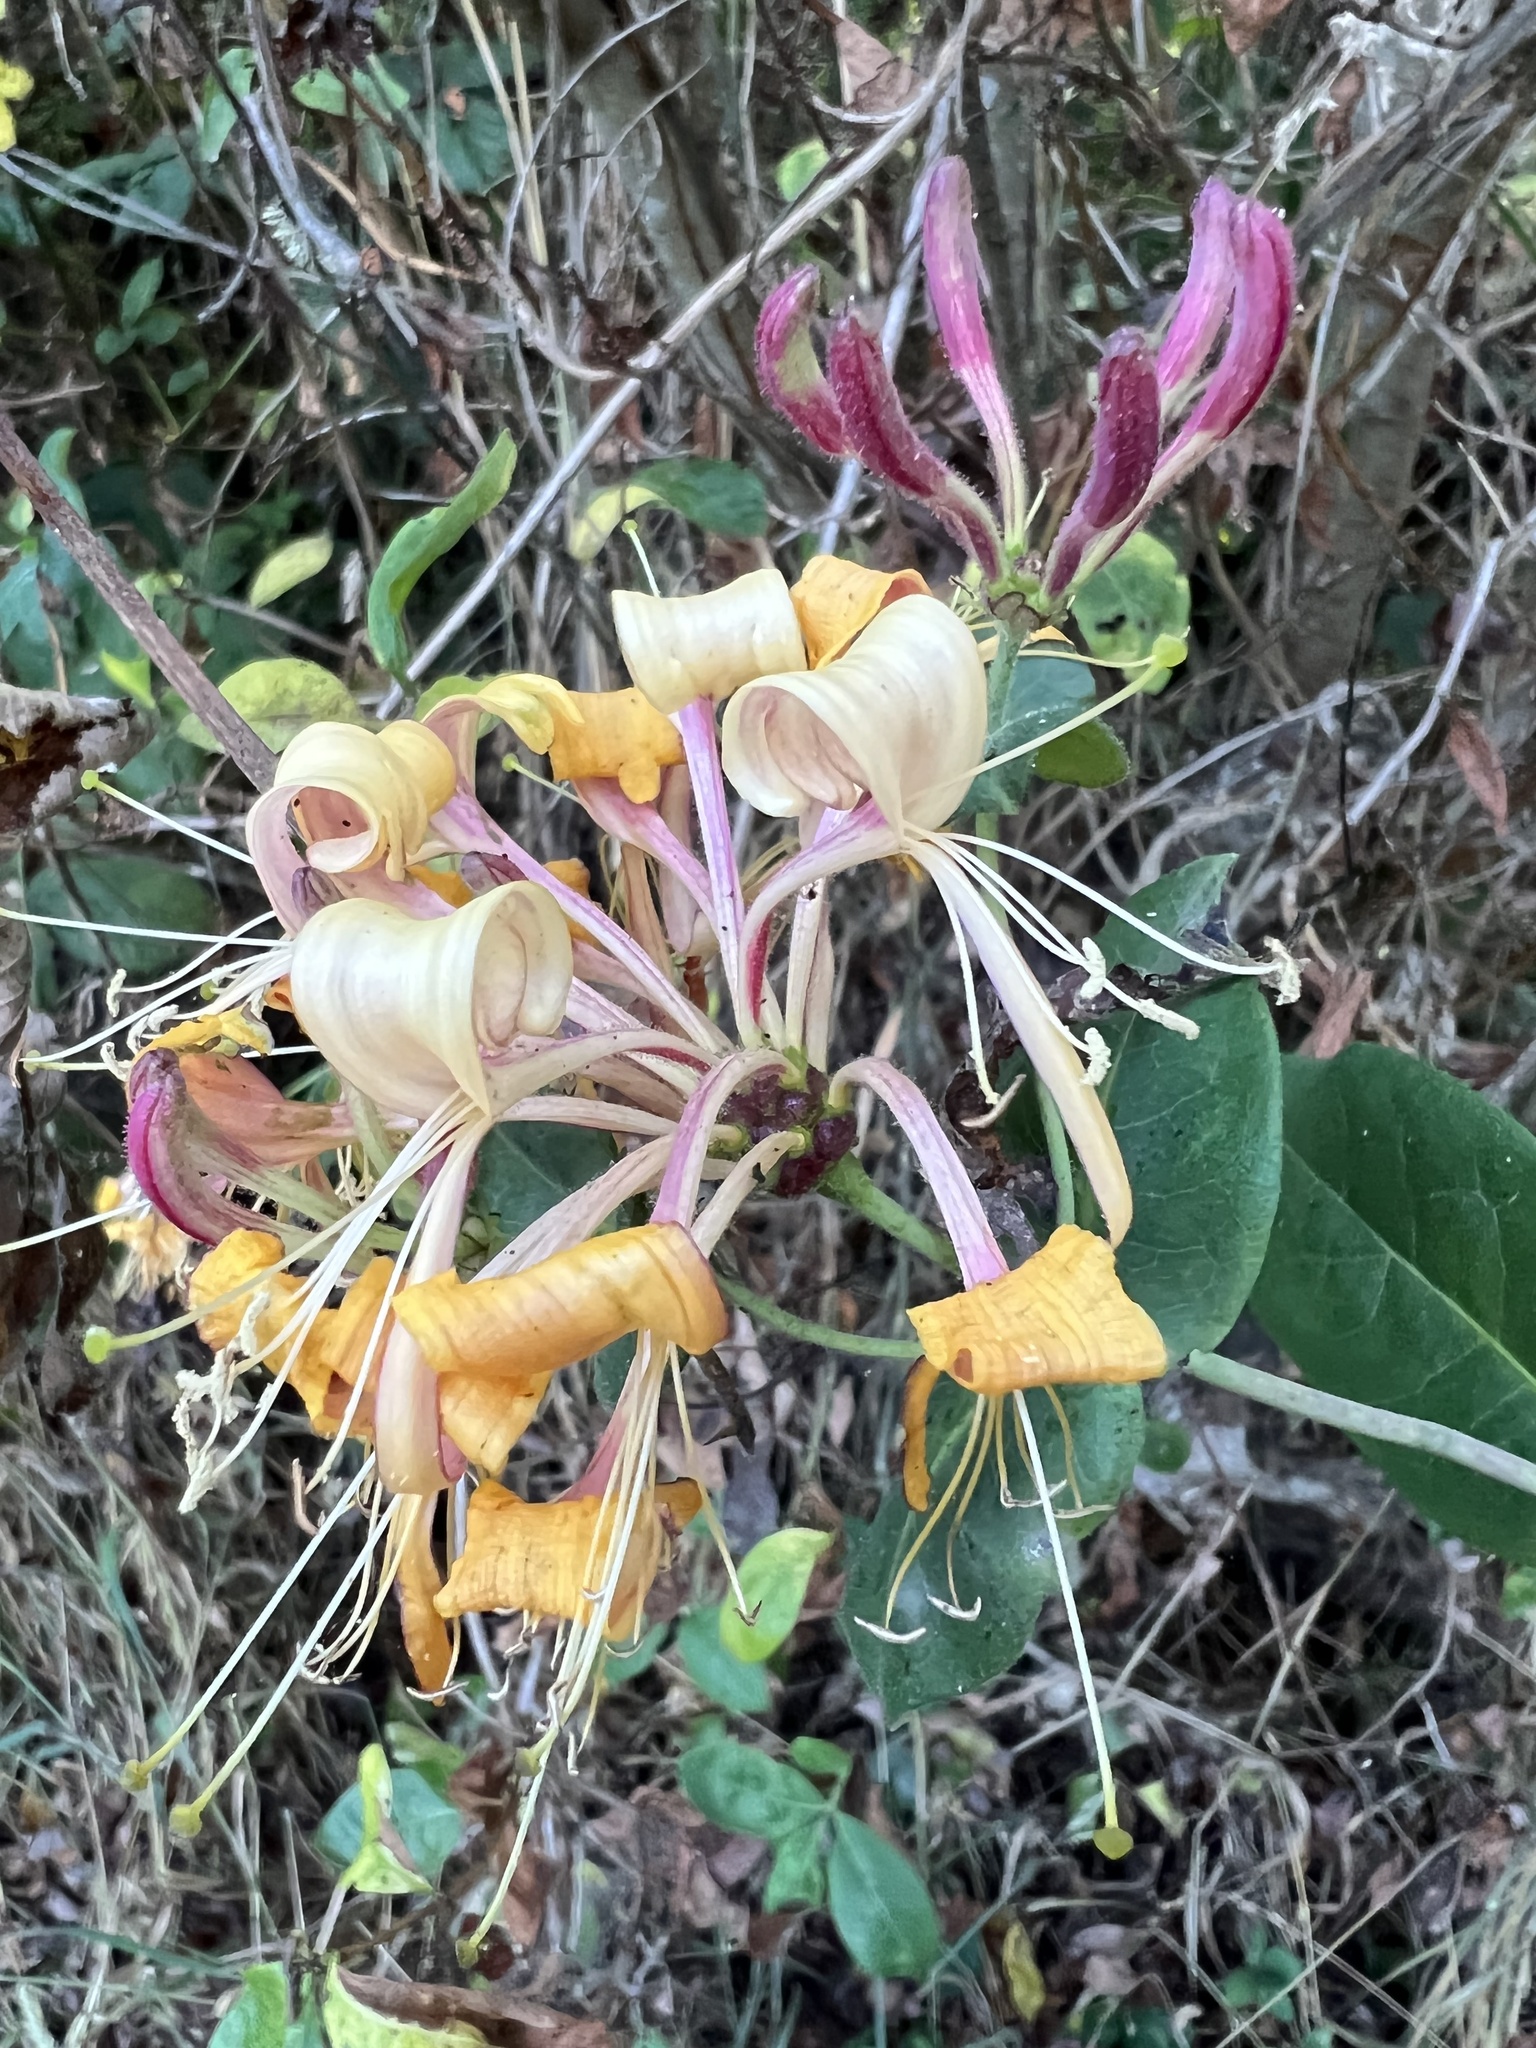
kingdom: Plantae
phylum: Tracheophyta
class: Magnoliopsida
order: Dipsacales
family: Caprifoliaceae
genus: Lonicera
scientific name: Lonicera periclymenum
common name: European honeysuckle
